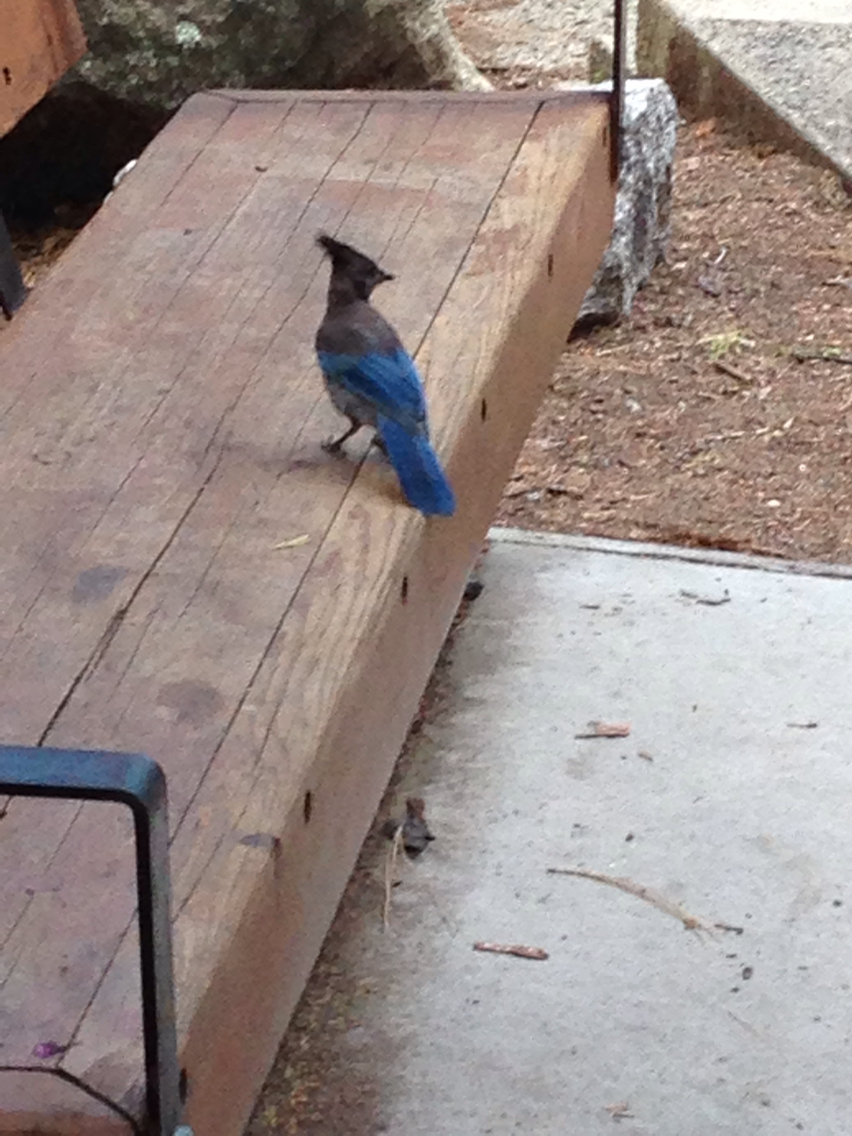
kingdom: Animalia
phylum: Chordata
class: Aves
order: Passeriformes
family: Corvidae
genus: Cyanocitta
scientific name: Cyanocitta stelleri
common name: Steller's jay
